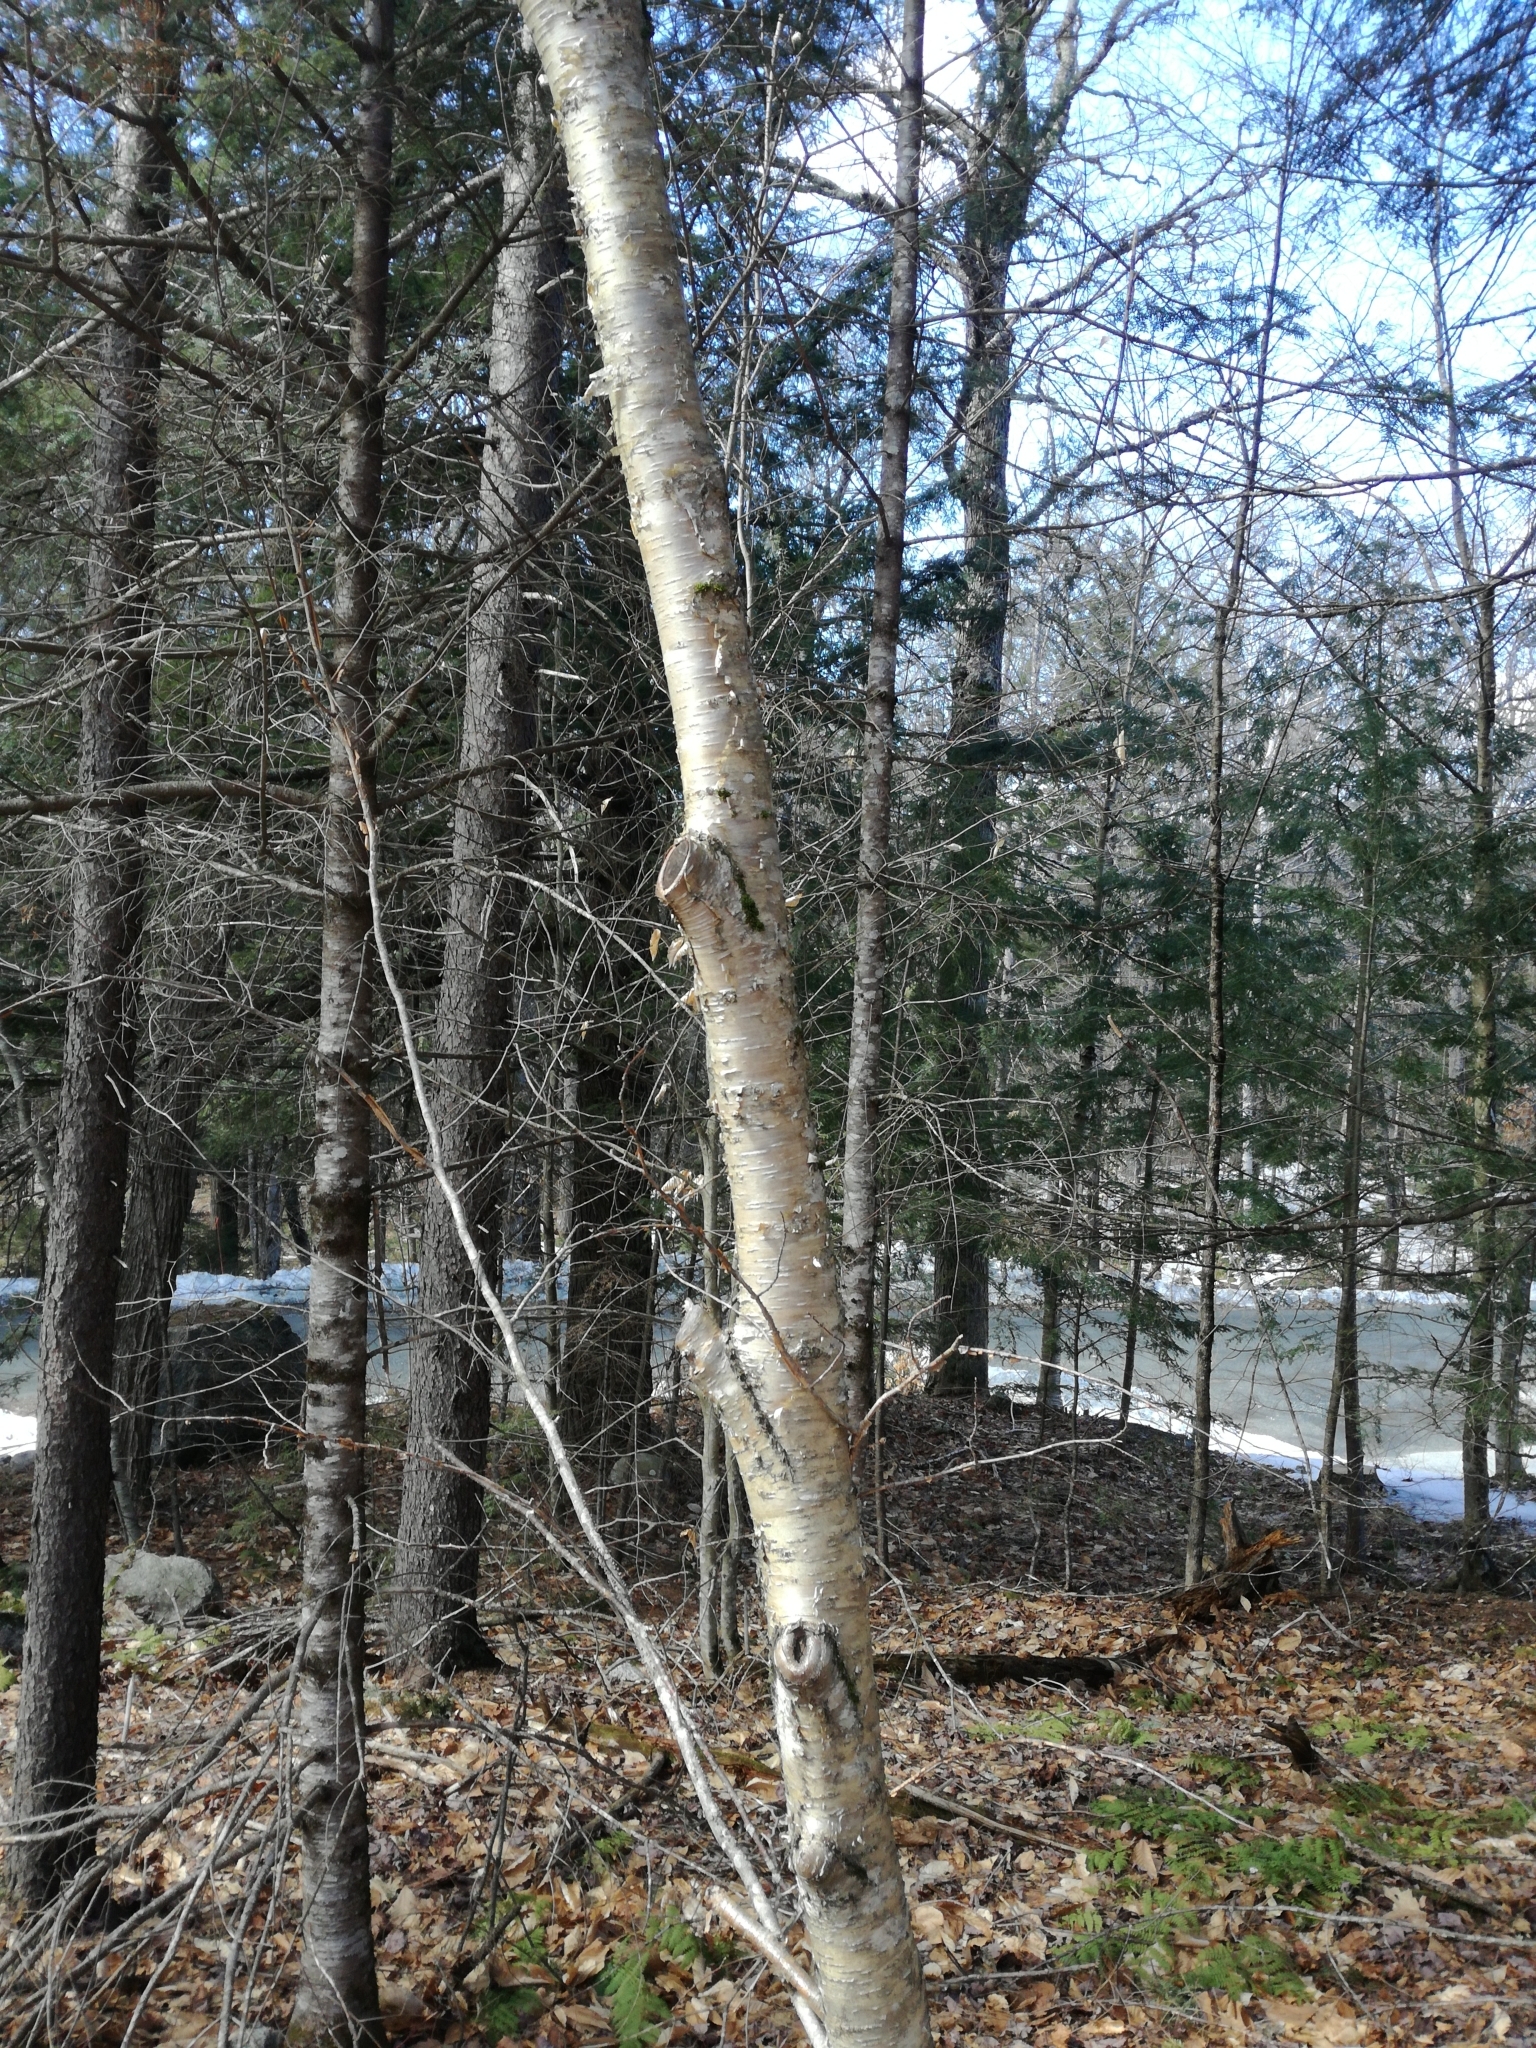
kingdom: Plantae
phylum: Tracheophyta
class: Magnoliopsida
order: Fagales
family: Betulaceae
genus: Betula
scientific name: Betula alleghaniensis
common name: Yellow birch
